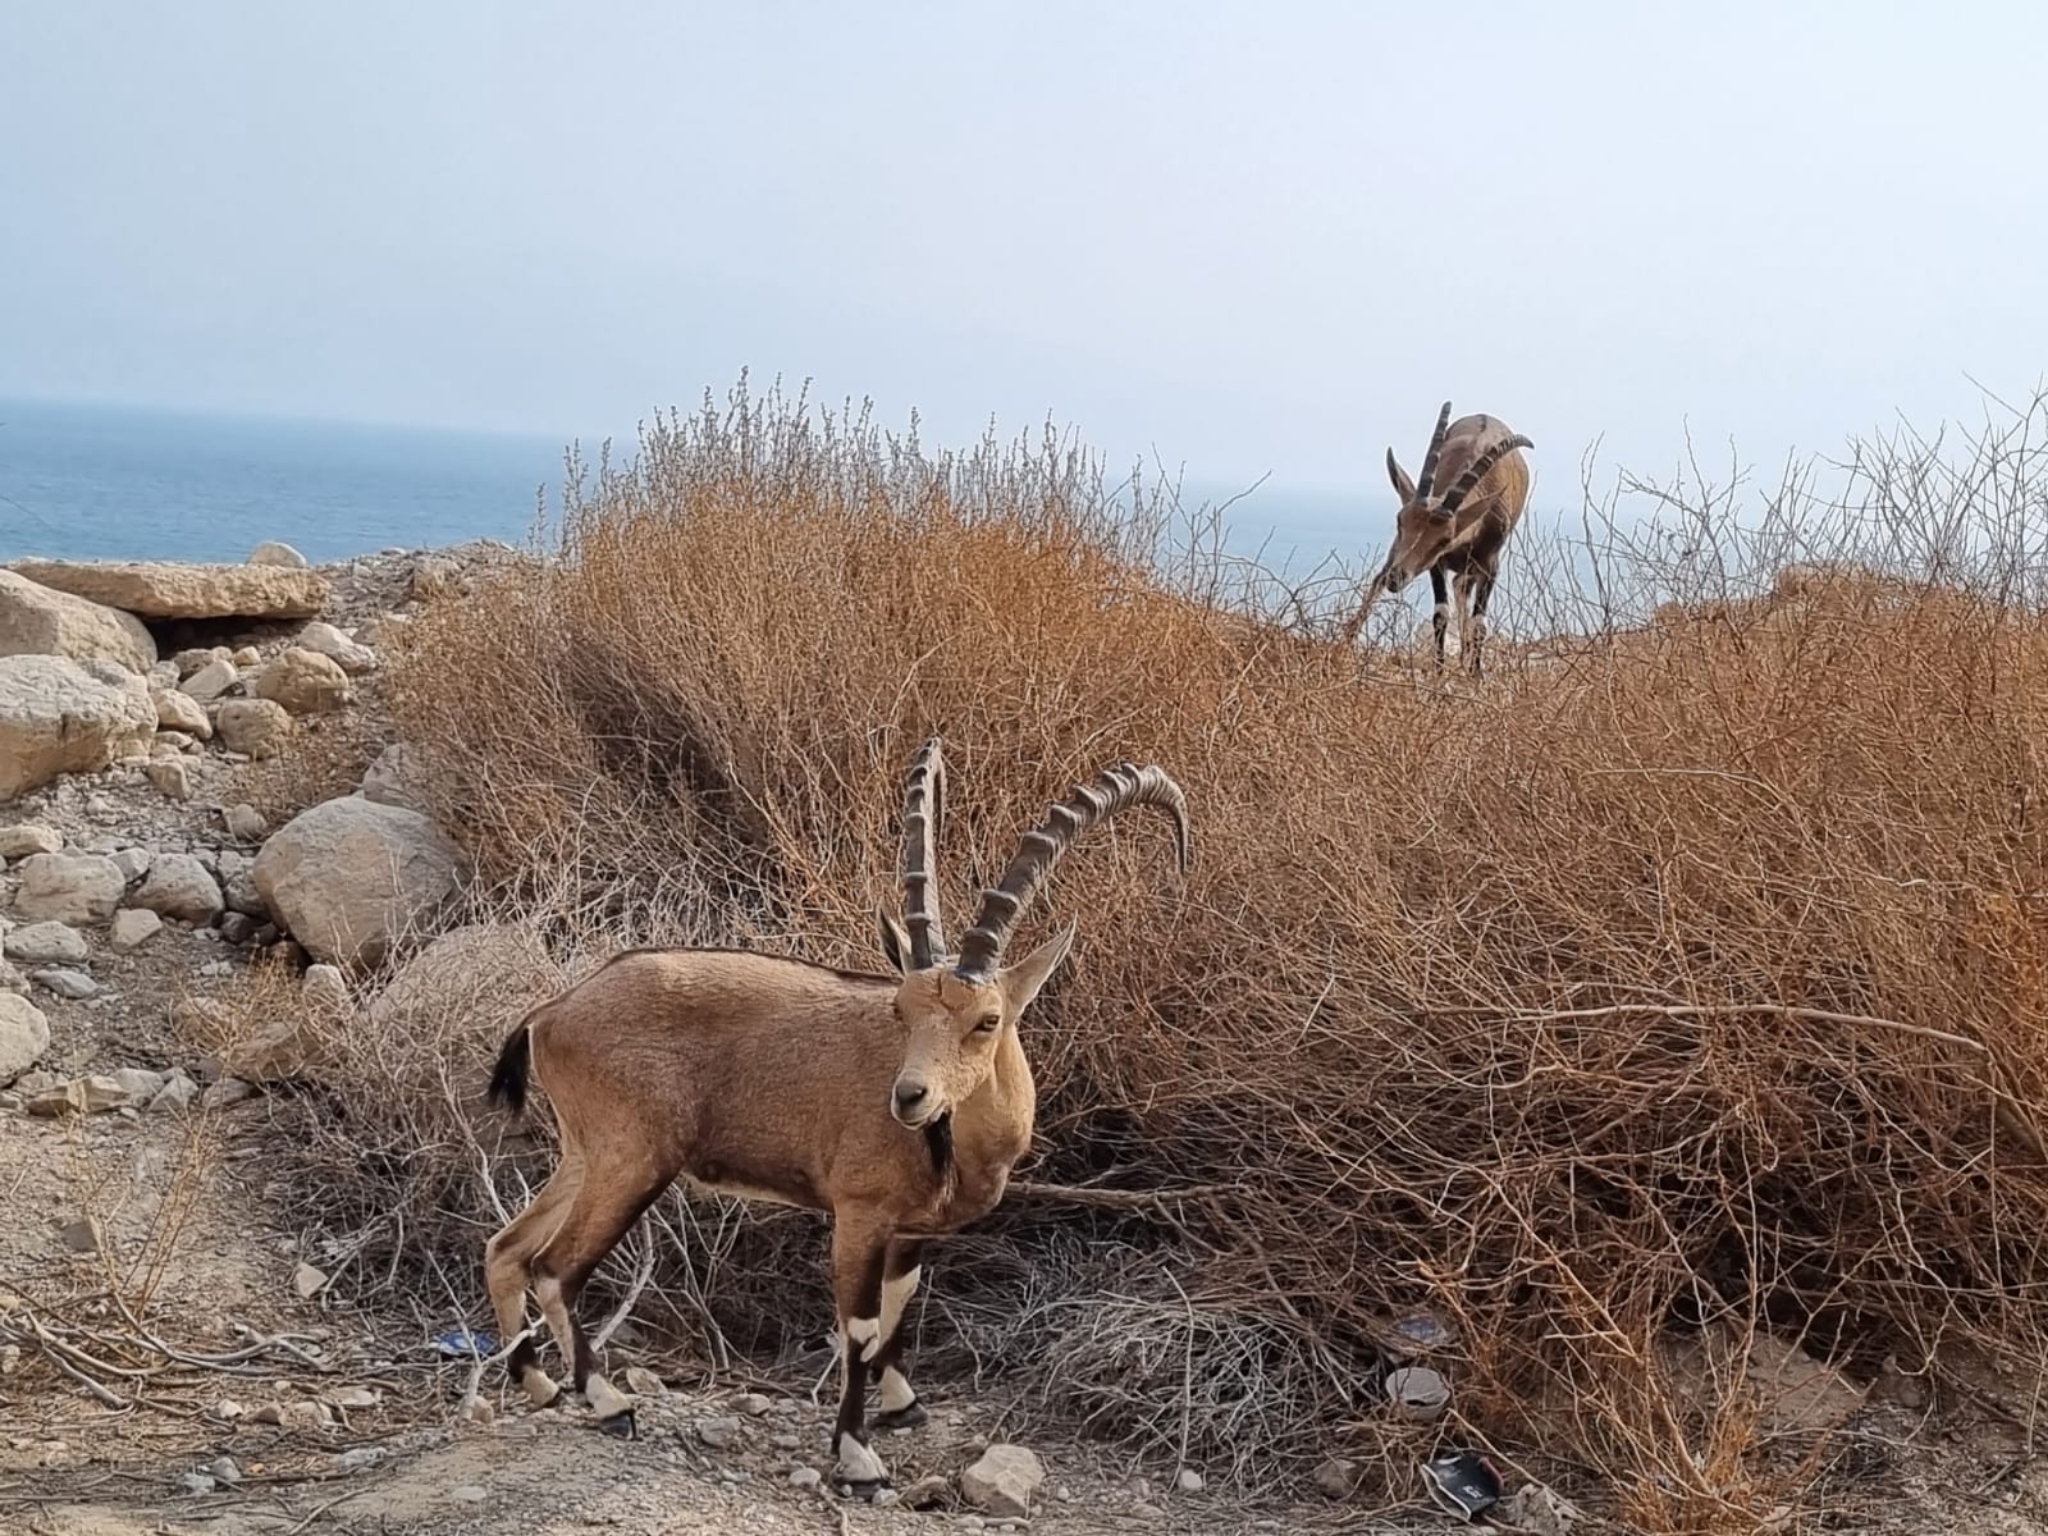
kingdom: Animalia
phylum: Chordata
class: Mammalia
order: Artiodactyla
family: Bovidae
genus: Capra
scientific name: Capra nubiana
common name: Nubian ibex
